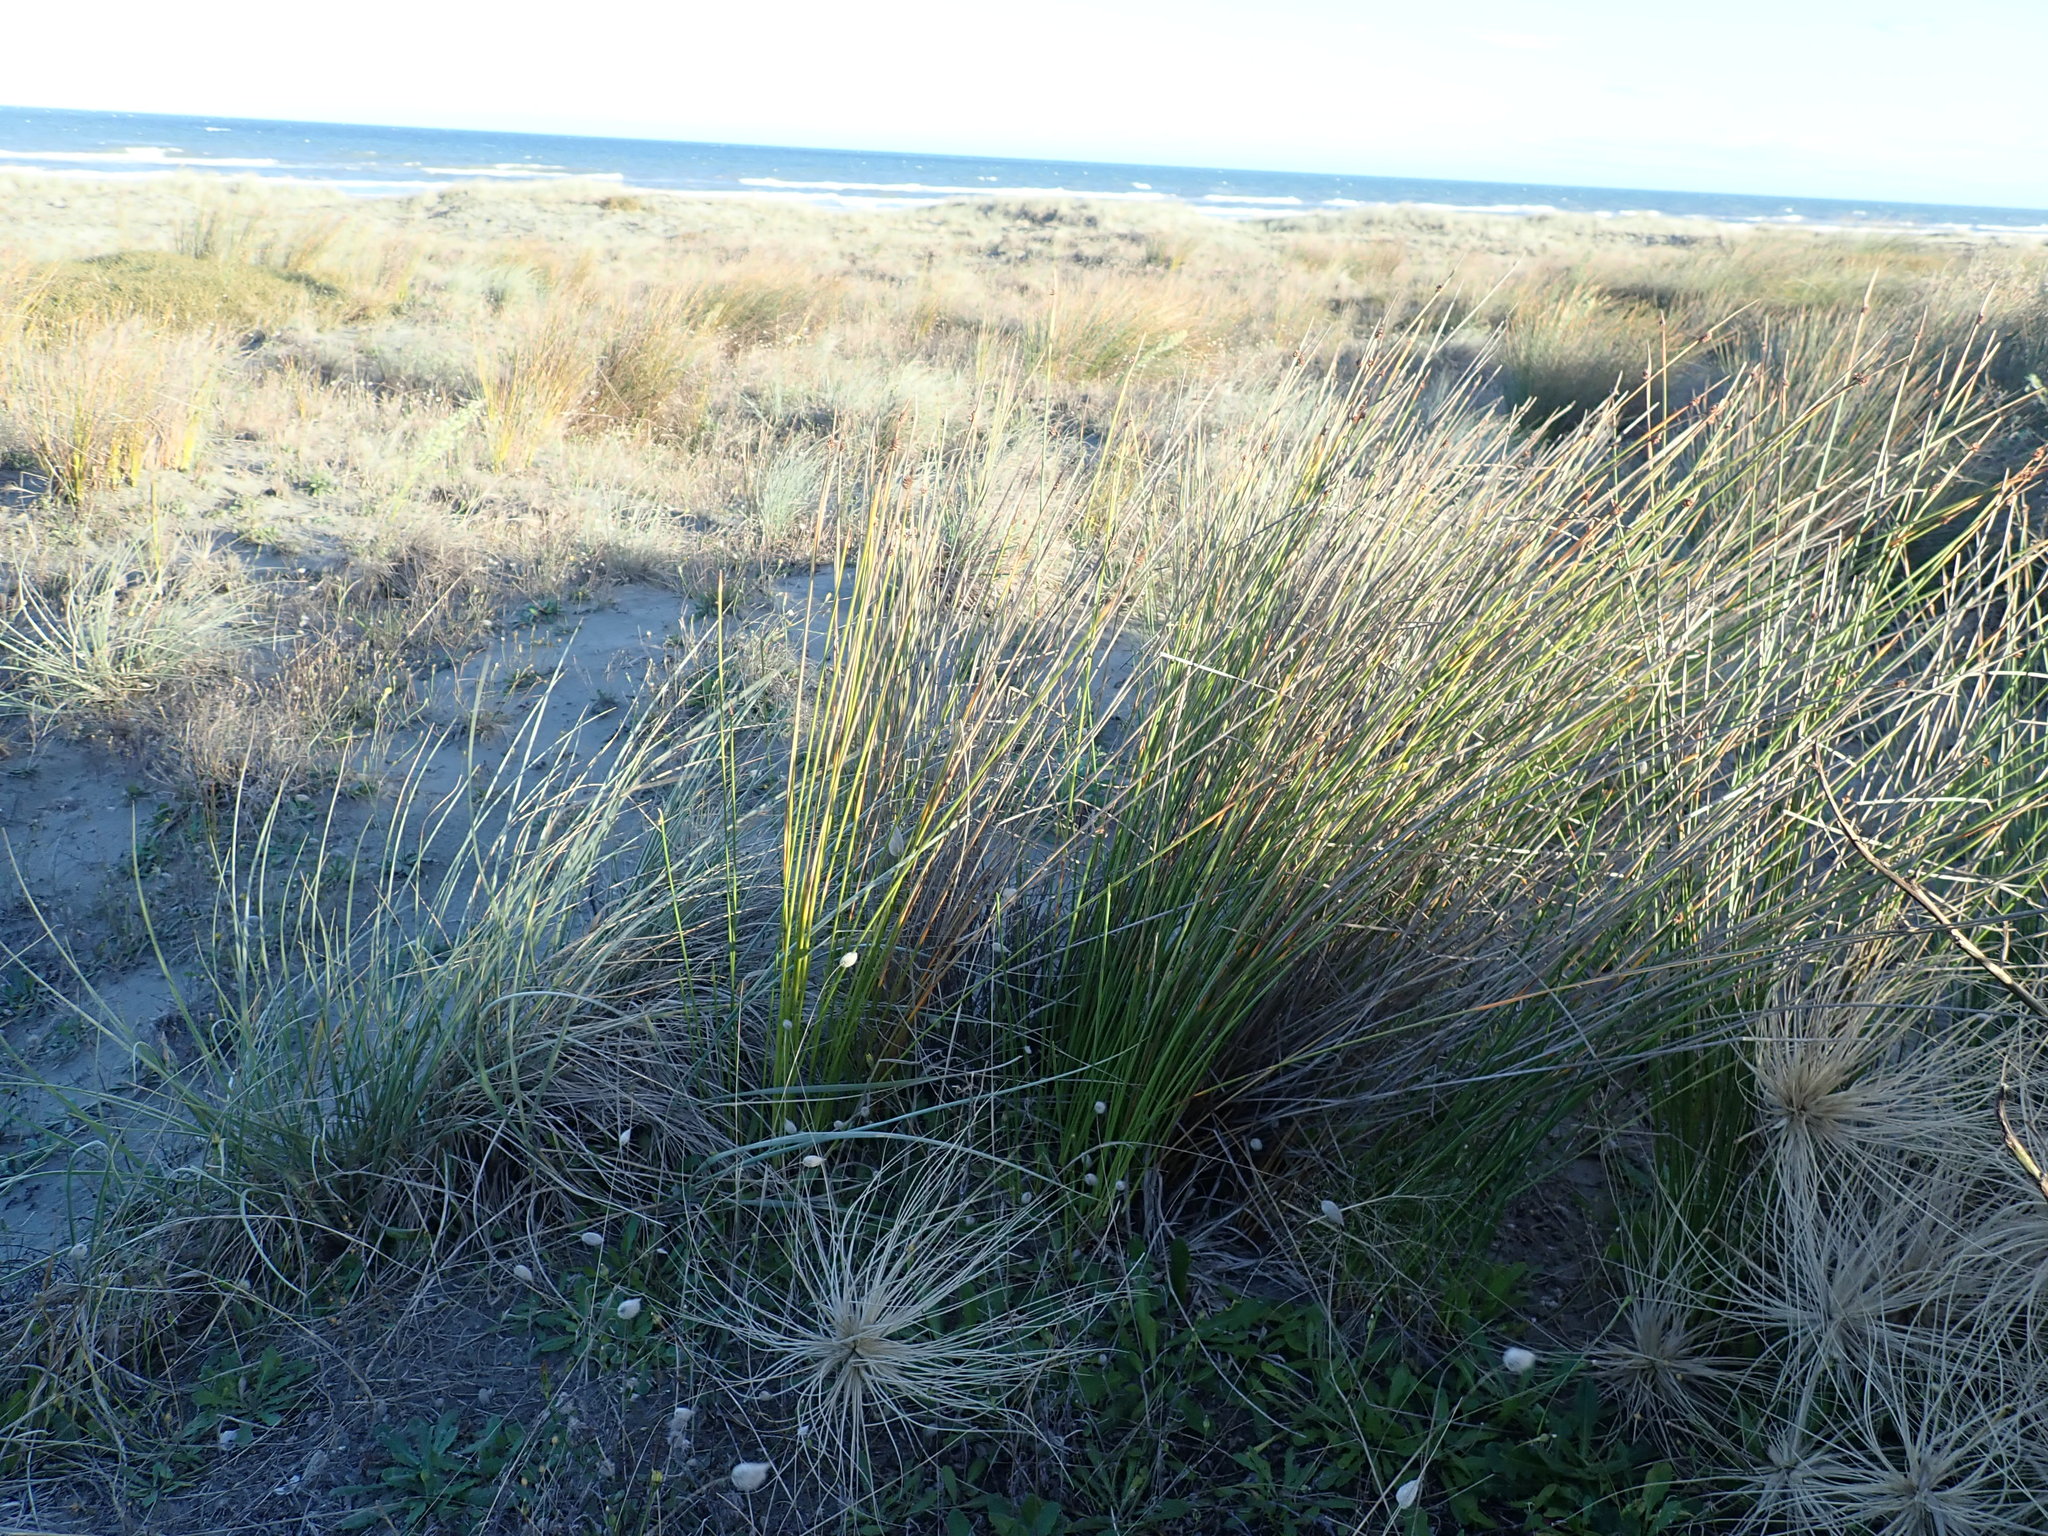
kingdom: Plantae
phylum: Tracheophyta
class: Liliopsida
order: Poales
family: Cyperaceae
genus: Ficinia
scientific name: Ficinia nodosa
